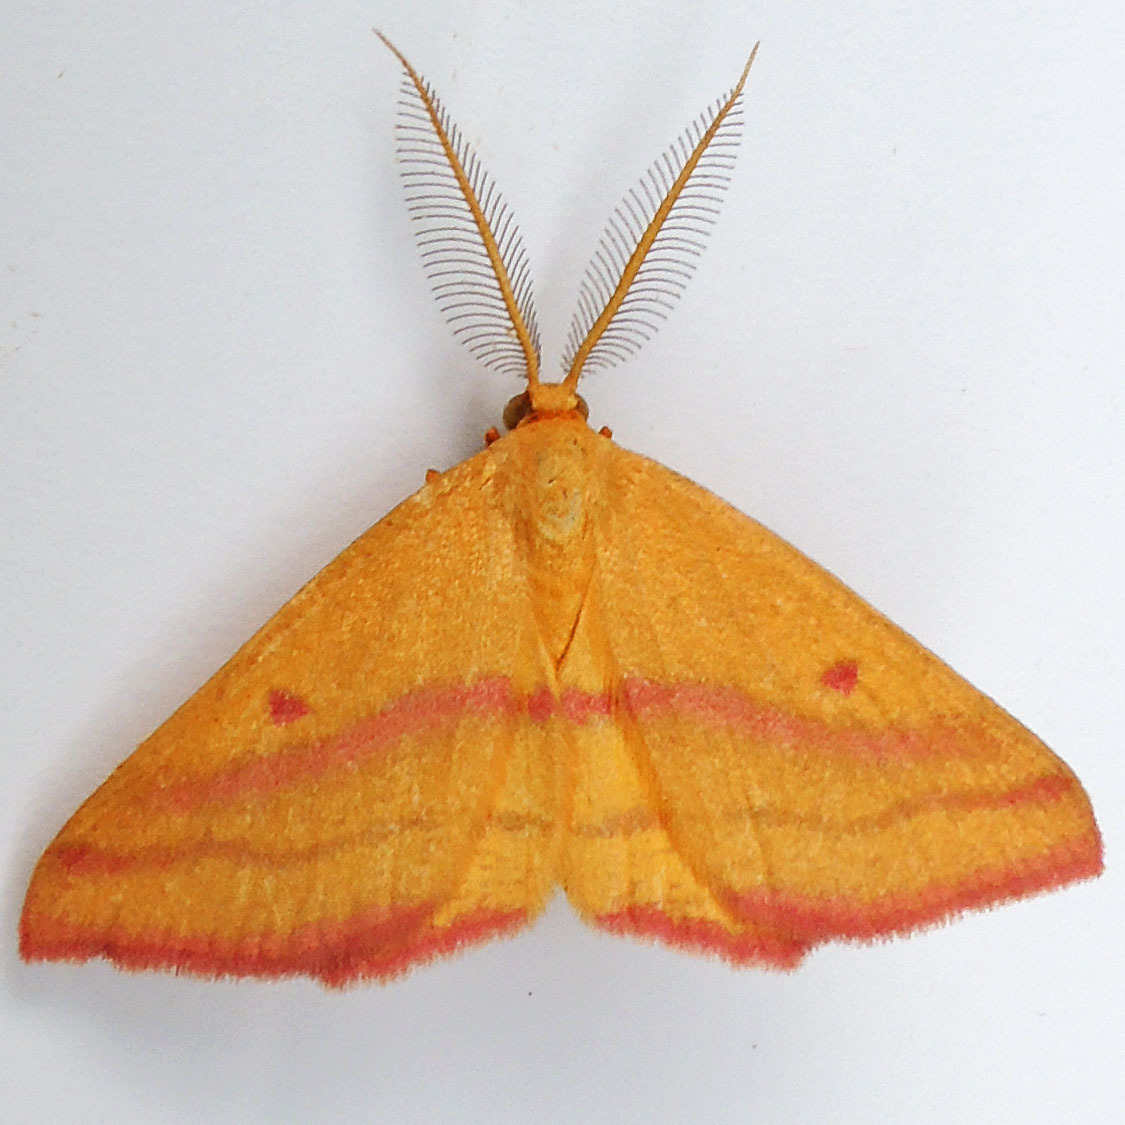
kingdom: Animalia
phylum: Arthropoda
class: Insecta
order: Lepidoptera
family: Geometridae
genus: Haematopis
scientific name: Haematopis grataria
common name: Chickweed geometer
